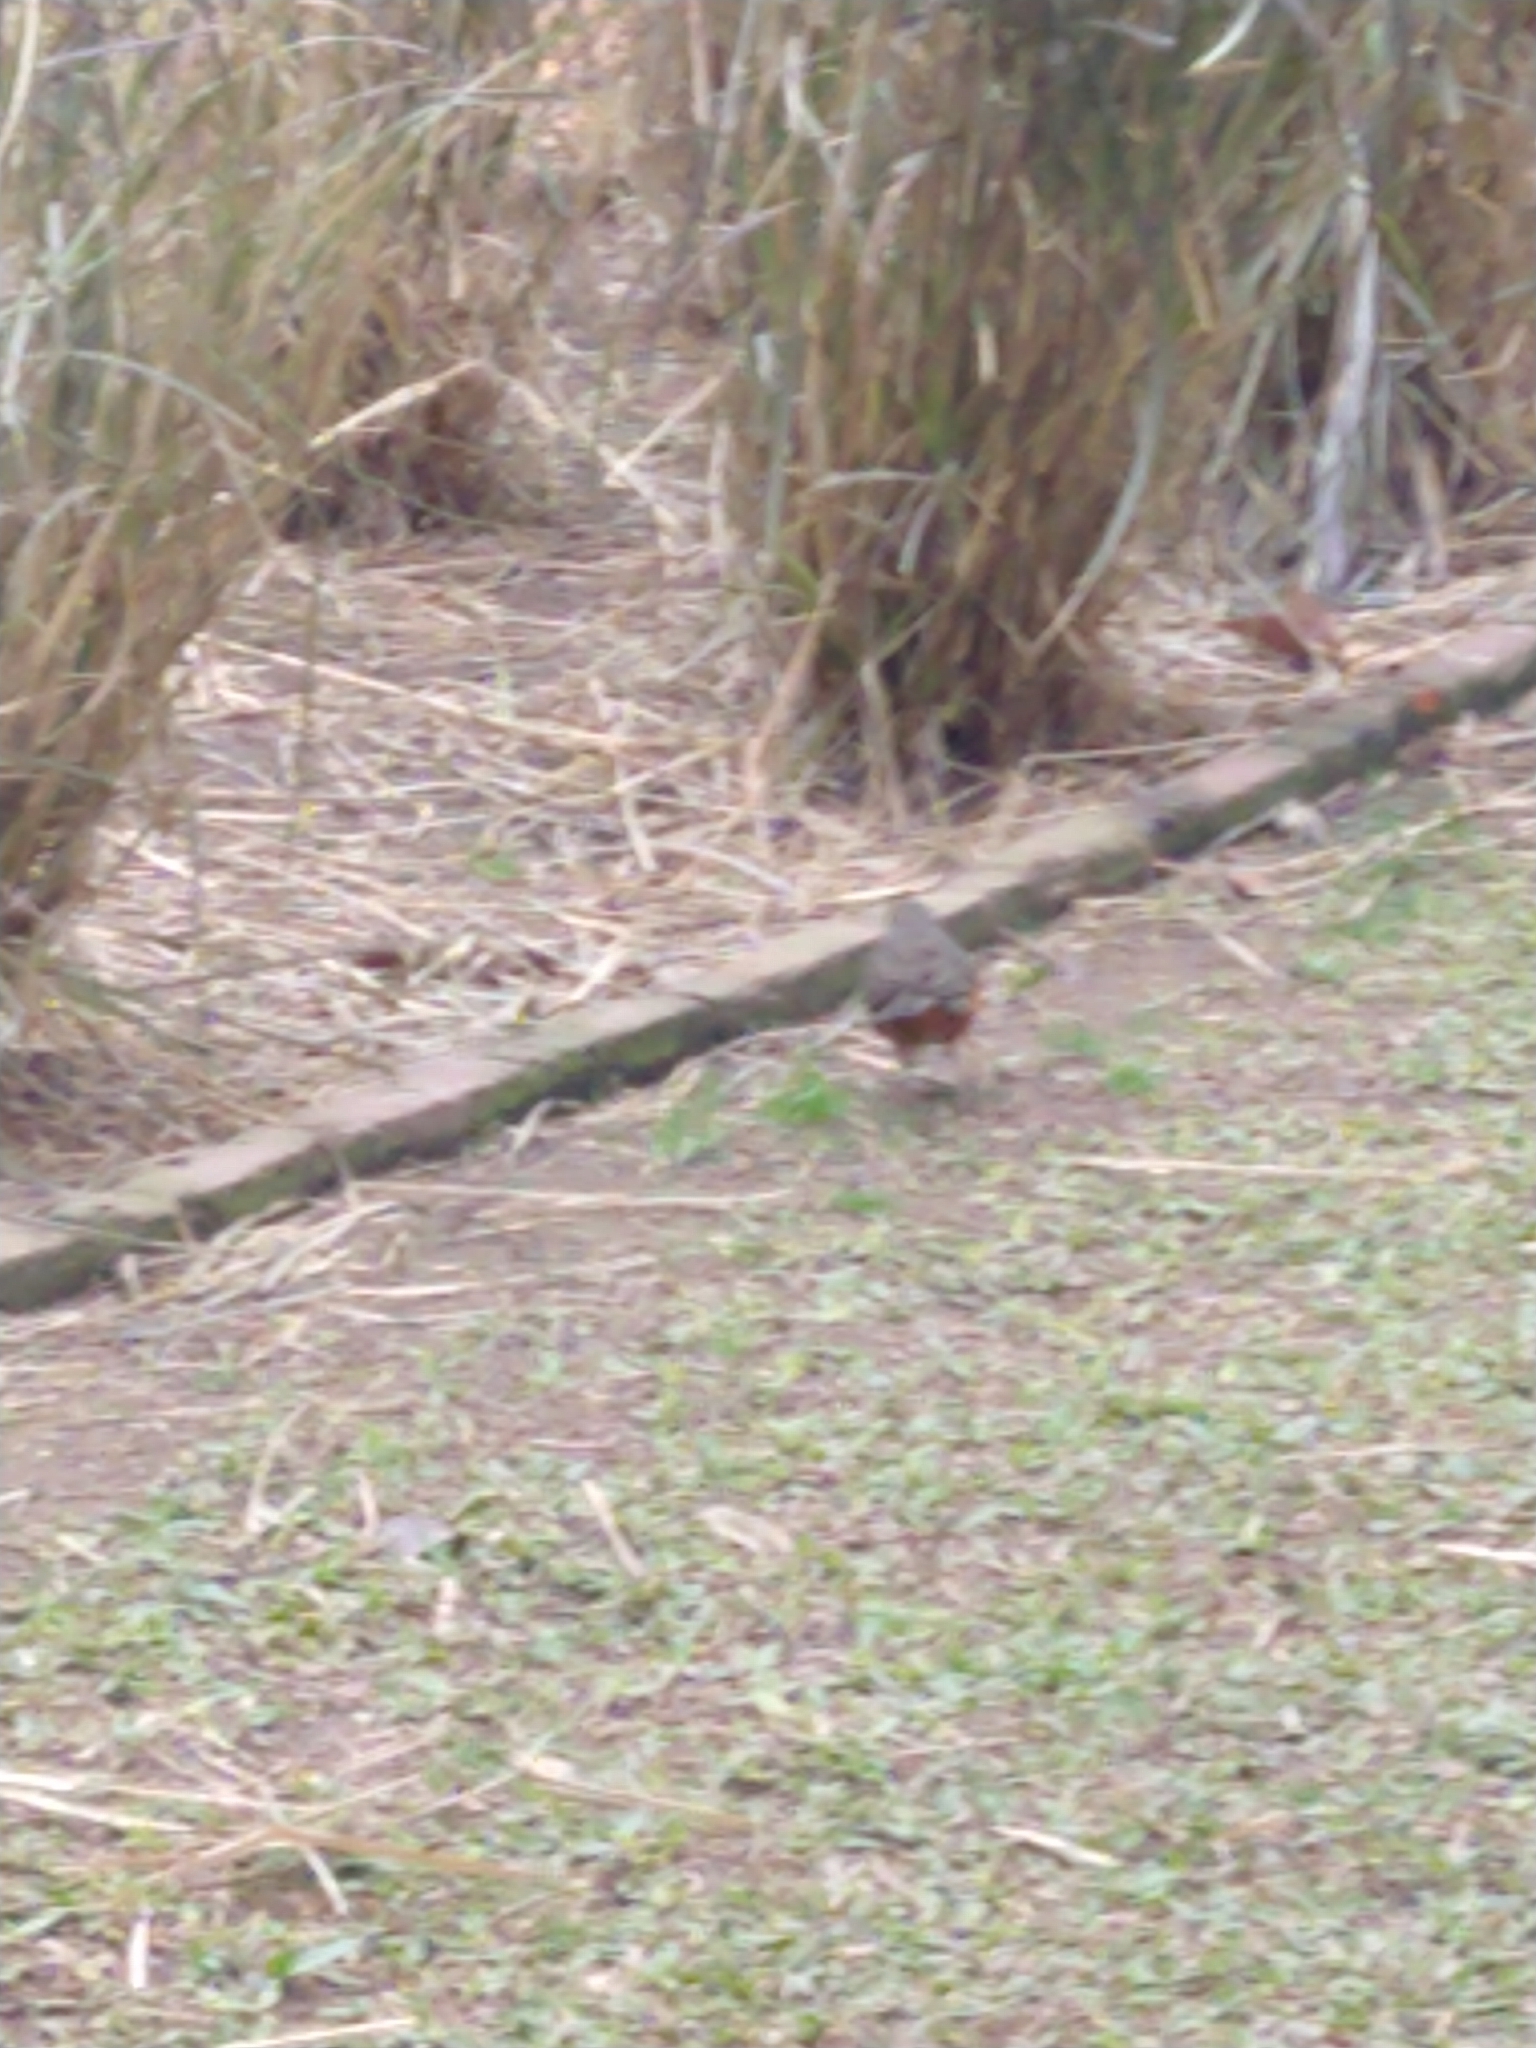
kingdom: Animalia
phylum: Chordata
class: Aves
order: Passeriformes
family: Turdidae
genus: Turdus
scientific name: Turdus rufiventris
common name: Rufous-bellied thrush
